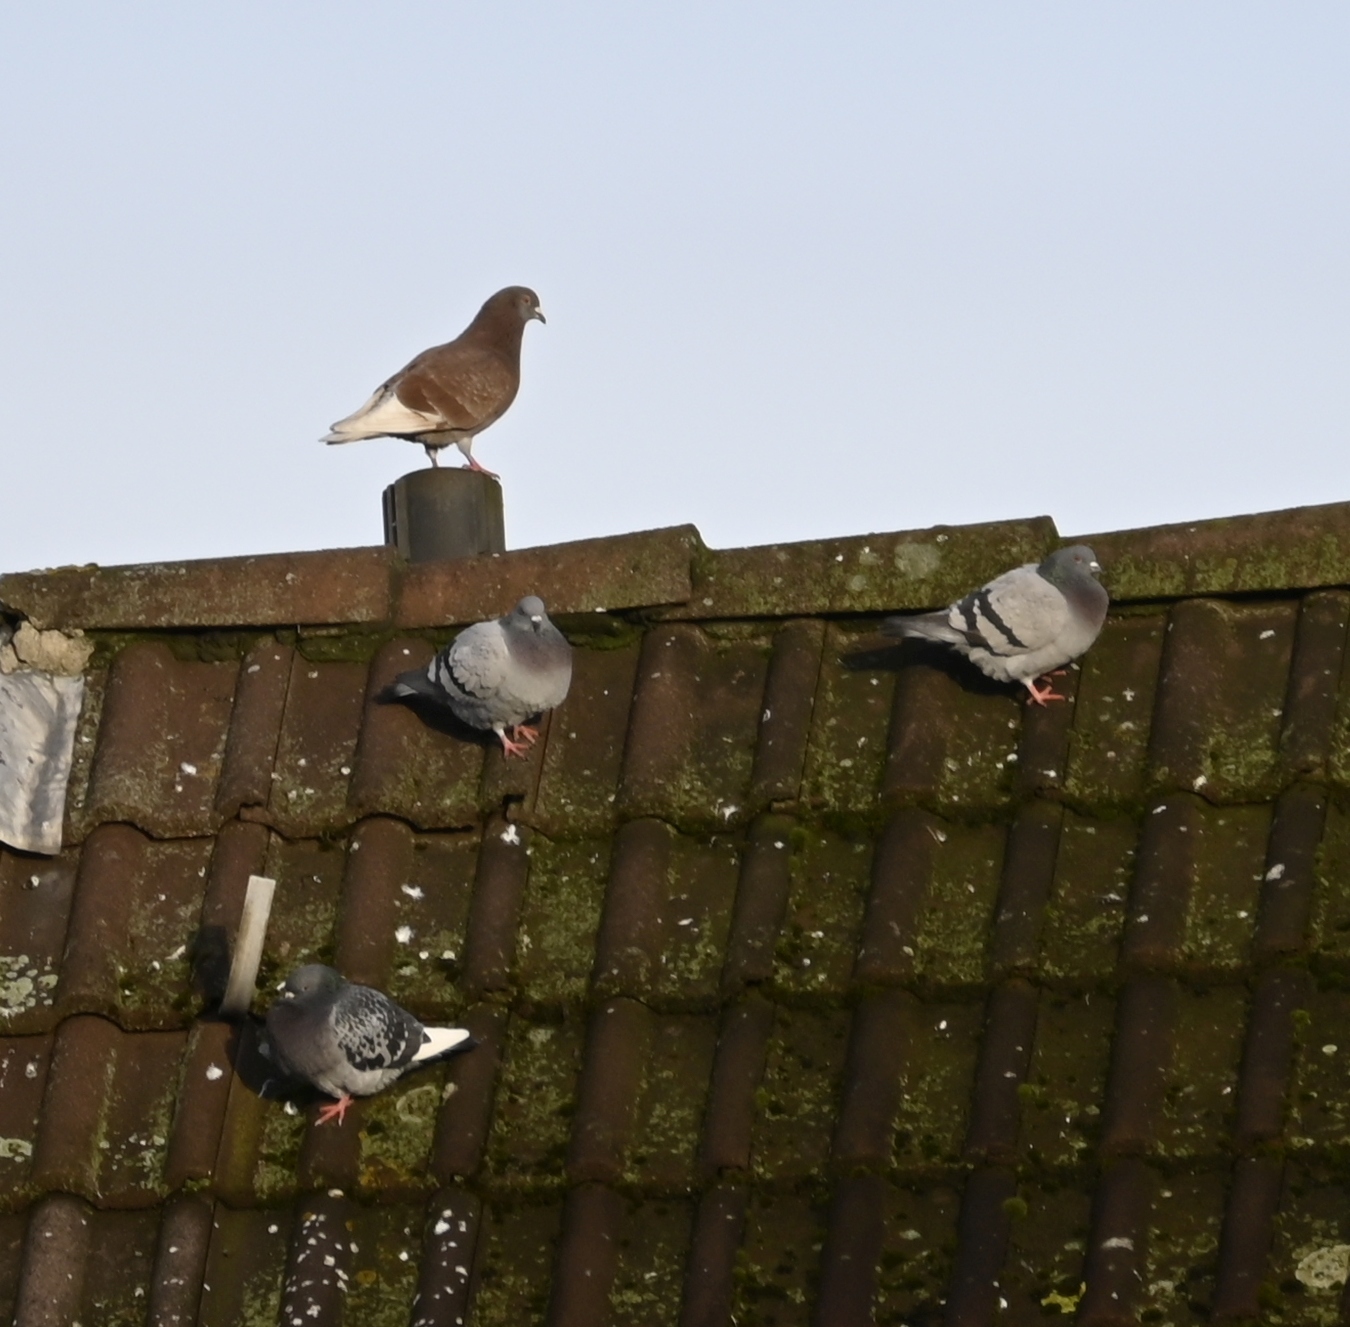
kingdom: Animalia
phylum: Chordata
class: Aves
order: Columbiformes
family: Columbidae
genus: Columba
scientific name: Columba livia
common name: Rock pigeon
